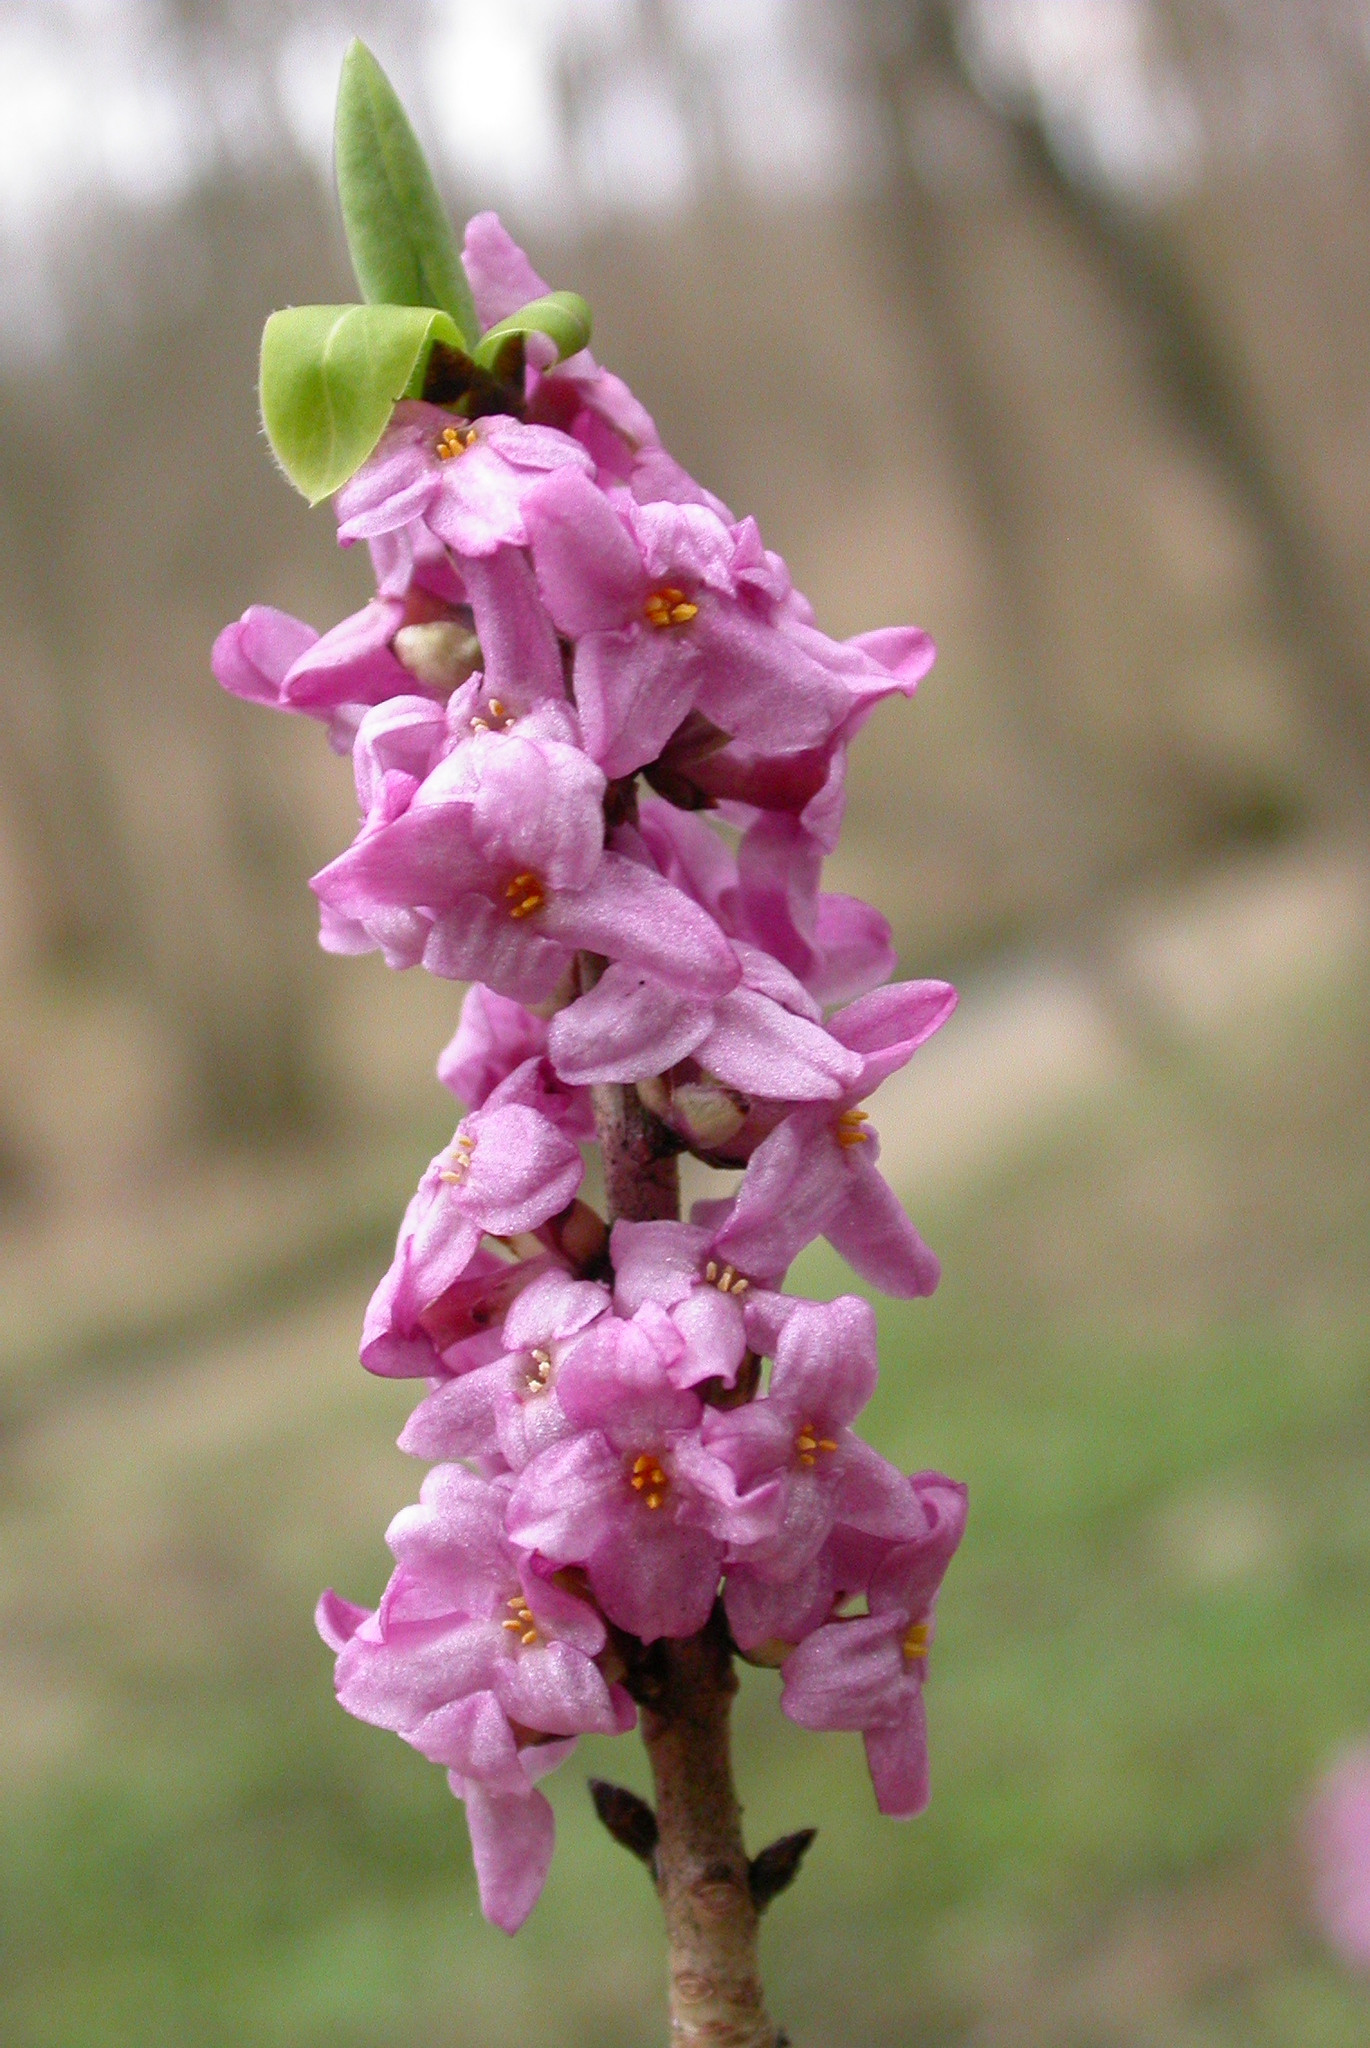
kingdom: Plantae
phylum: Tracheophyta
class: Magnoliopsida
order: Malvales
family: Thymelaeaceae
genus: Daphne
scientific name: Daphne mezereum
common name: Mezereon
